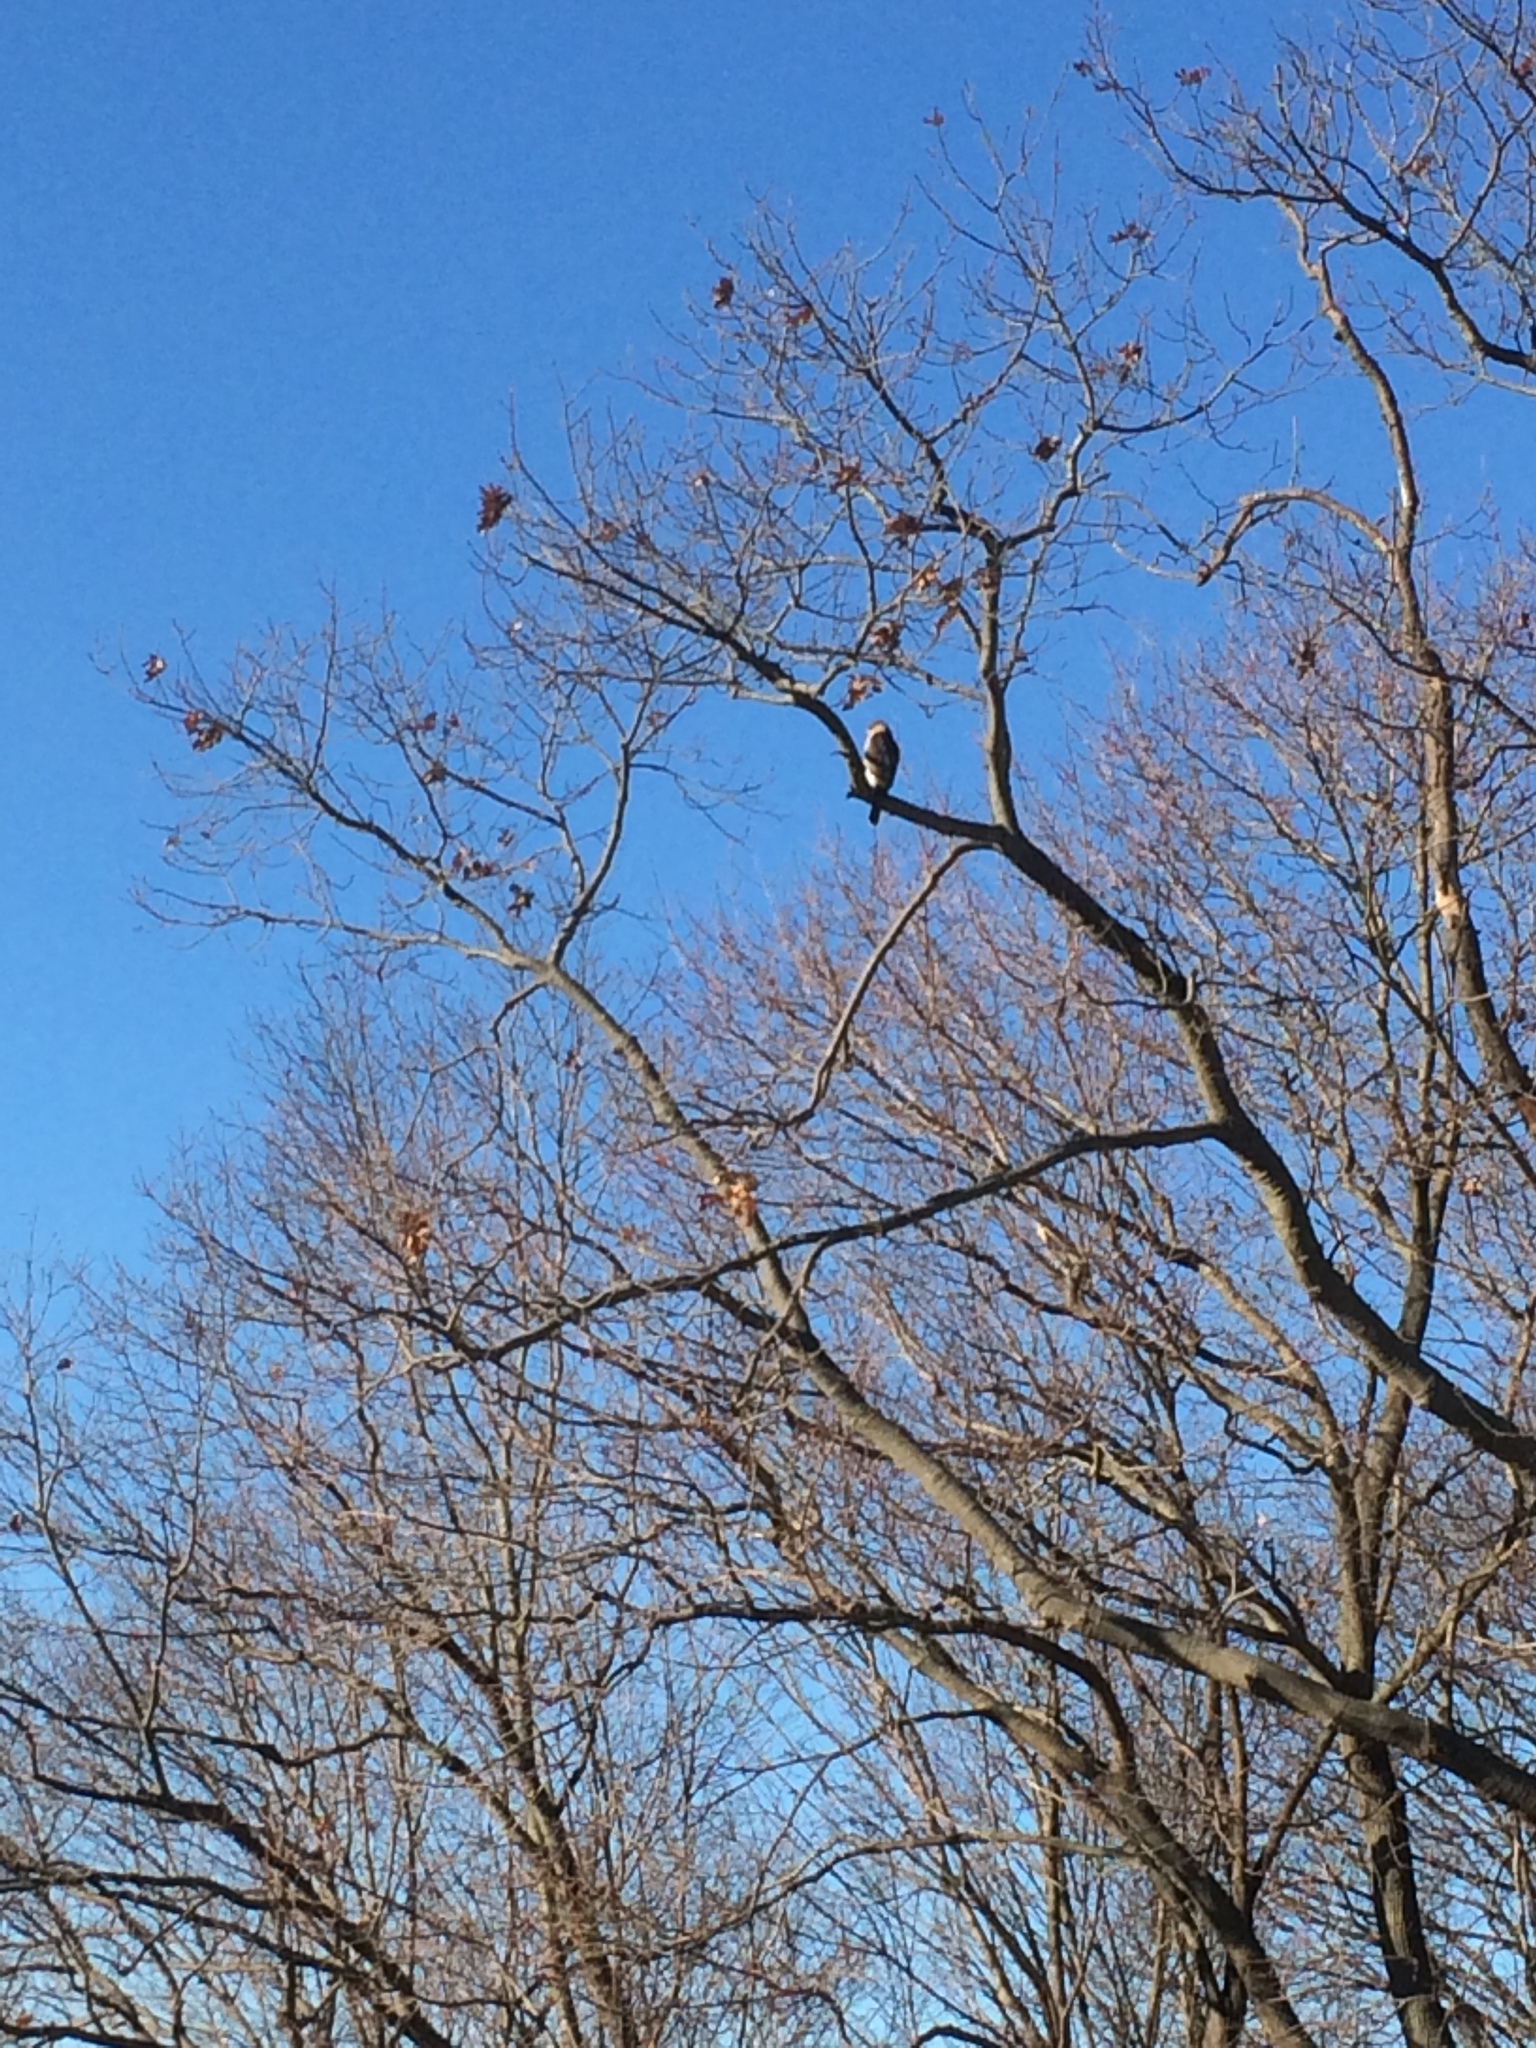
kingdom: Animalia
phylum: Chordata
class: Aves
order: Accipitriformes
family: Accipitridae
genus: Accipiter
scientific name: Accipiter cooperii
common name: Cooper's hawk
